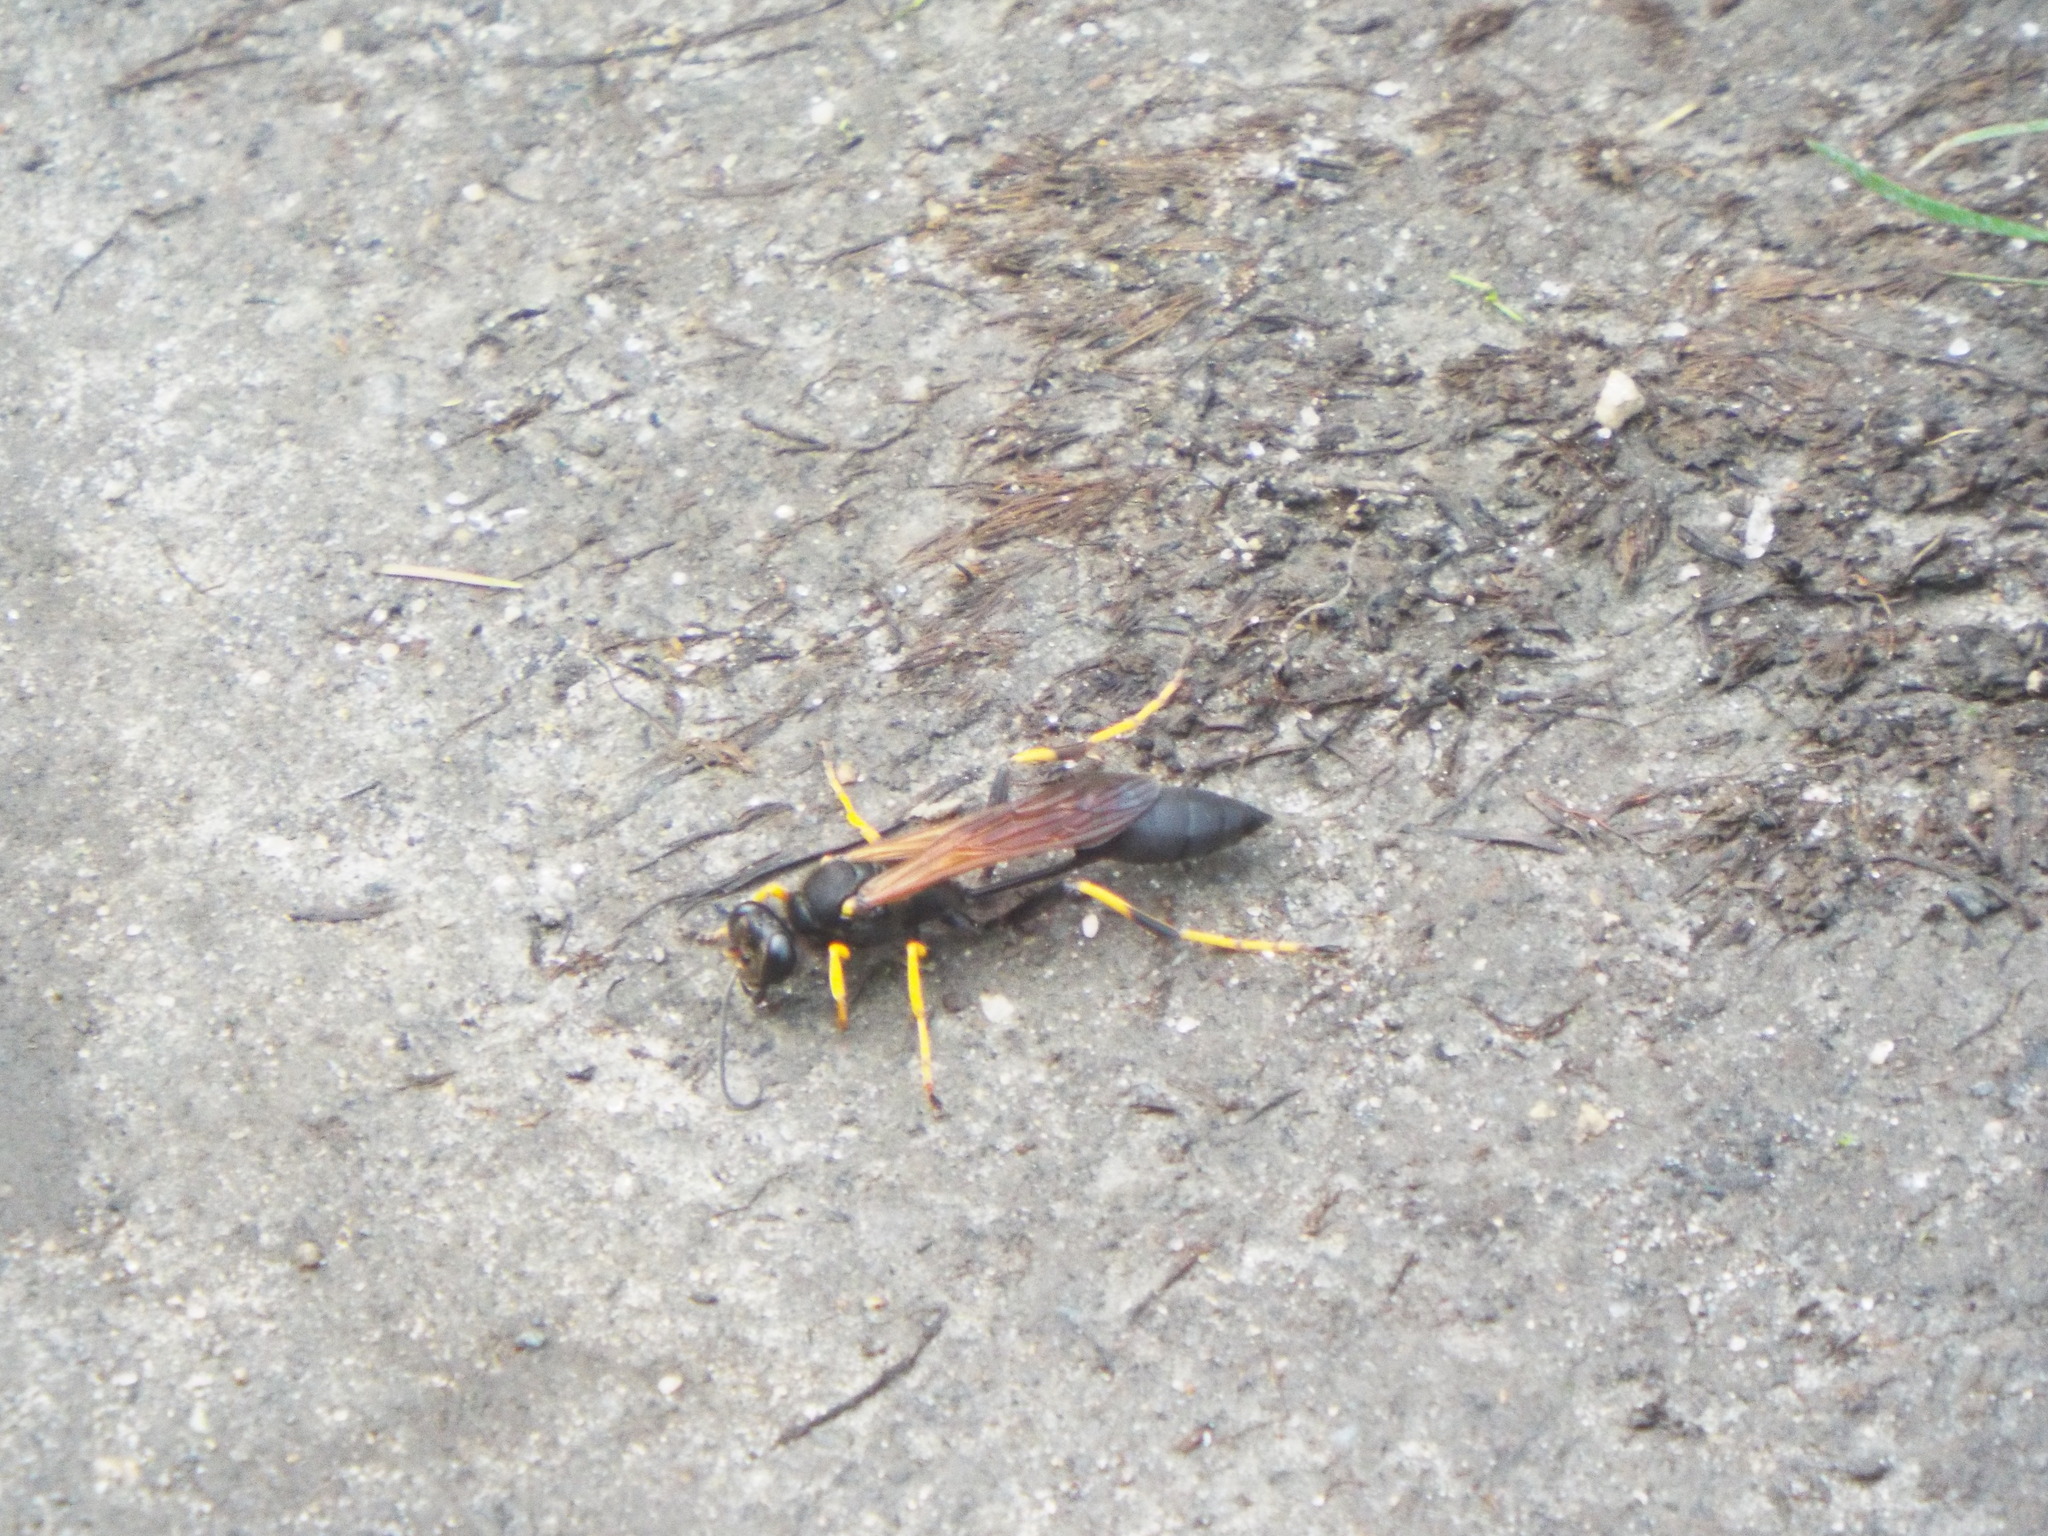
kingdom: Animalia
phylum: Arthropoda
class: Insecta
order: Hymenoptera
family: Sphecidae
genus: Sceliphron
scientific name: Sceliphron caementarium
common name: Mud dauber
